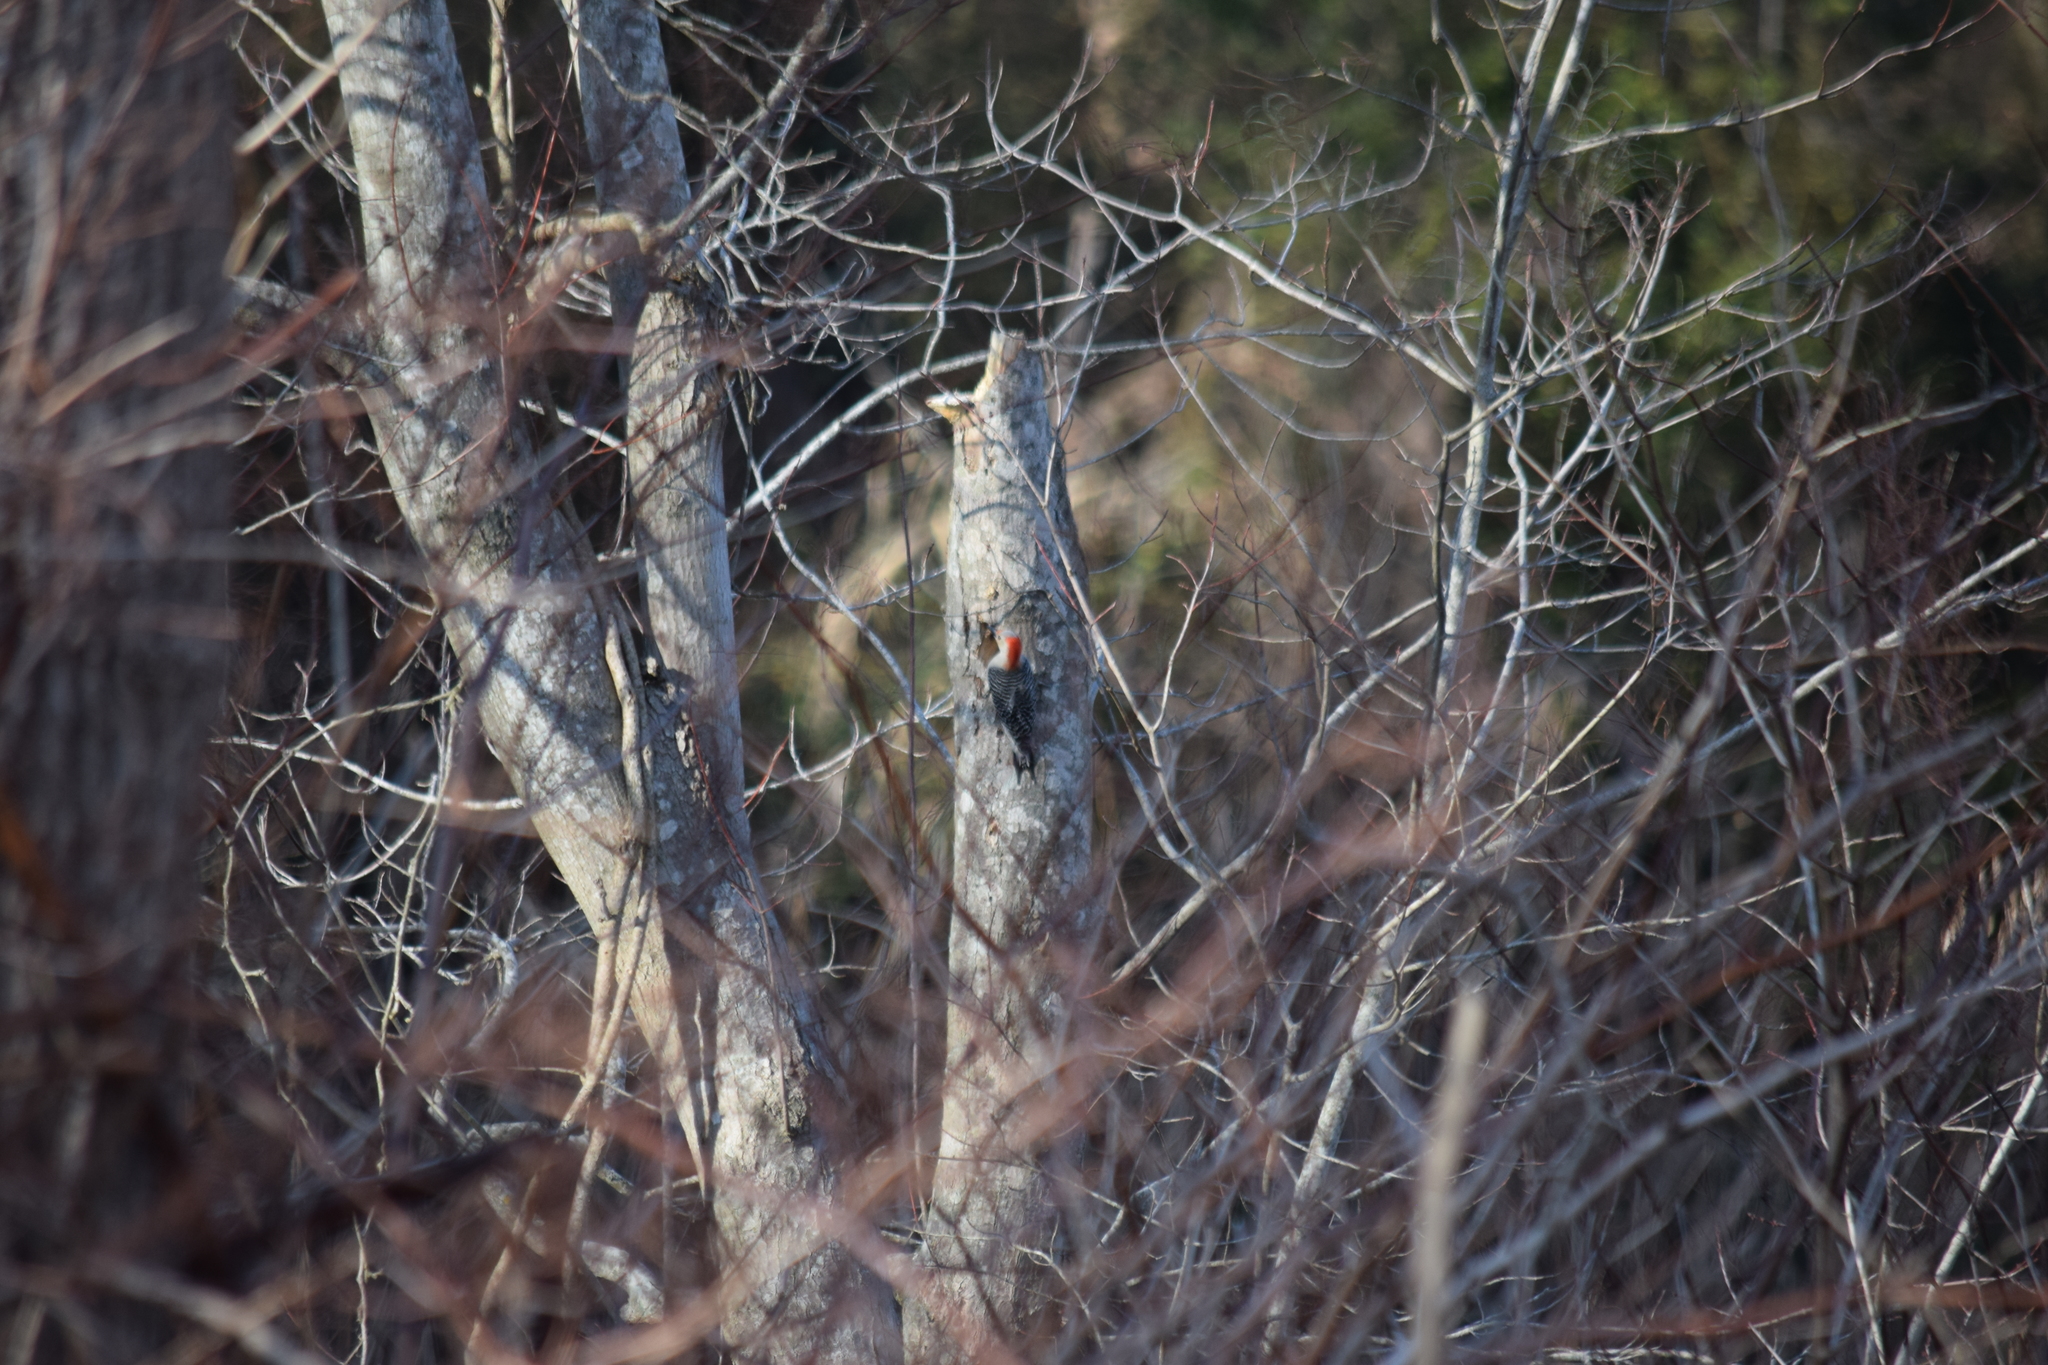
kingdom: Animalia
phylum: Chordata
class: Aves
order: Piciformes
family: Picidae
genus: Melanerpes
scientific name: Melanerpes carolinus
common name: Red-bellied woodpecker
